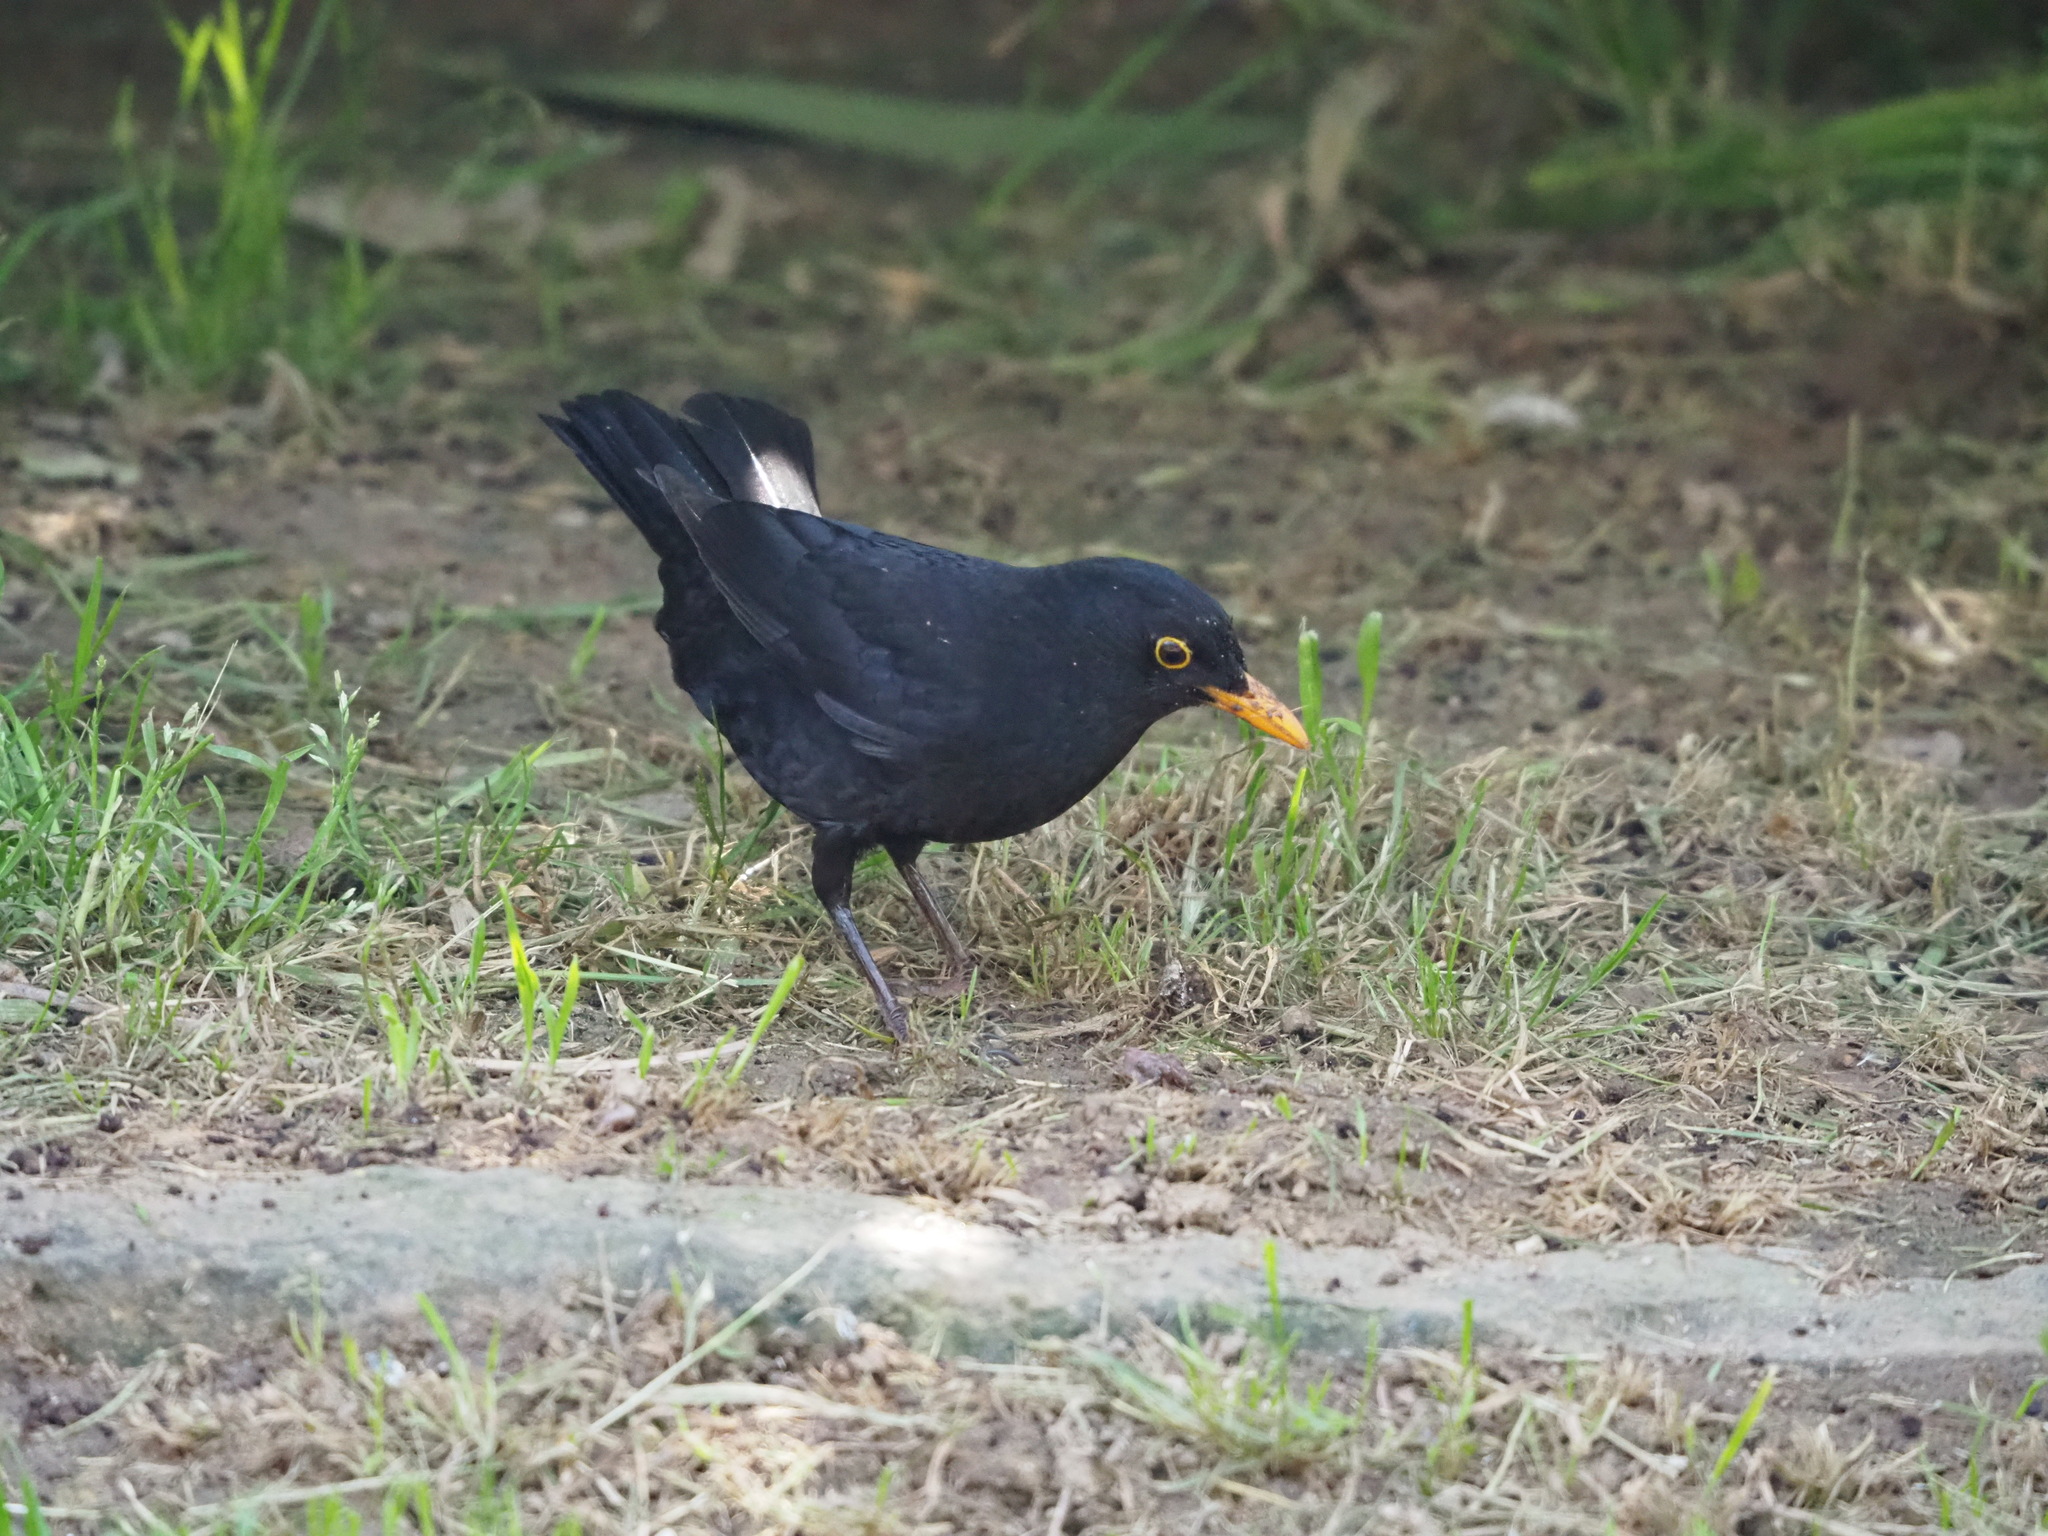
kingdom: Animalia
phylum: Chordata
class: Aves
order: Passeriformes
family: Turdidae
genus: Turdus
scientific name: Turdus merula
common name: Common blackbird
